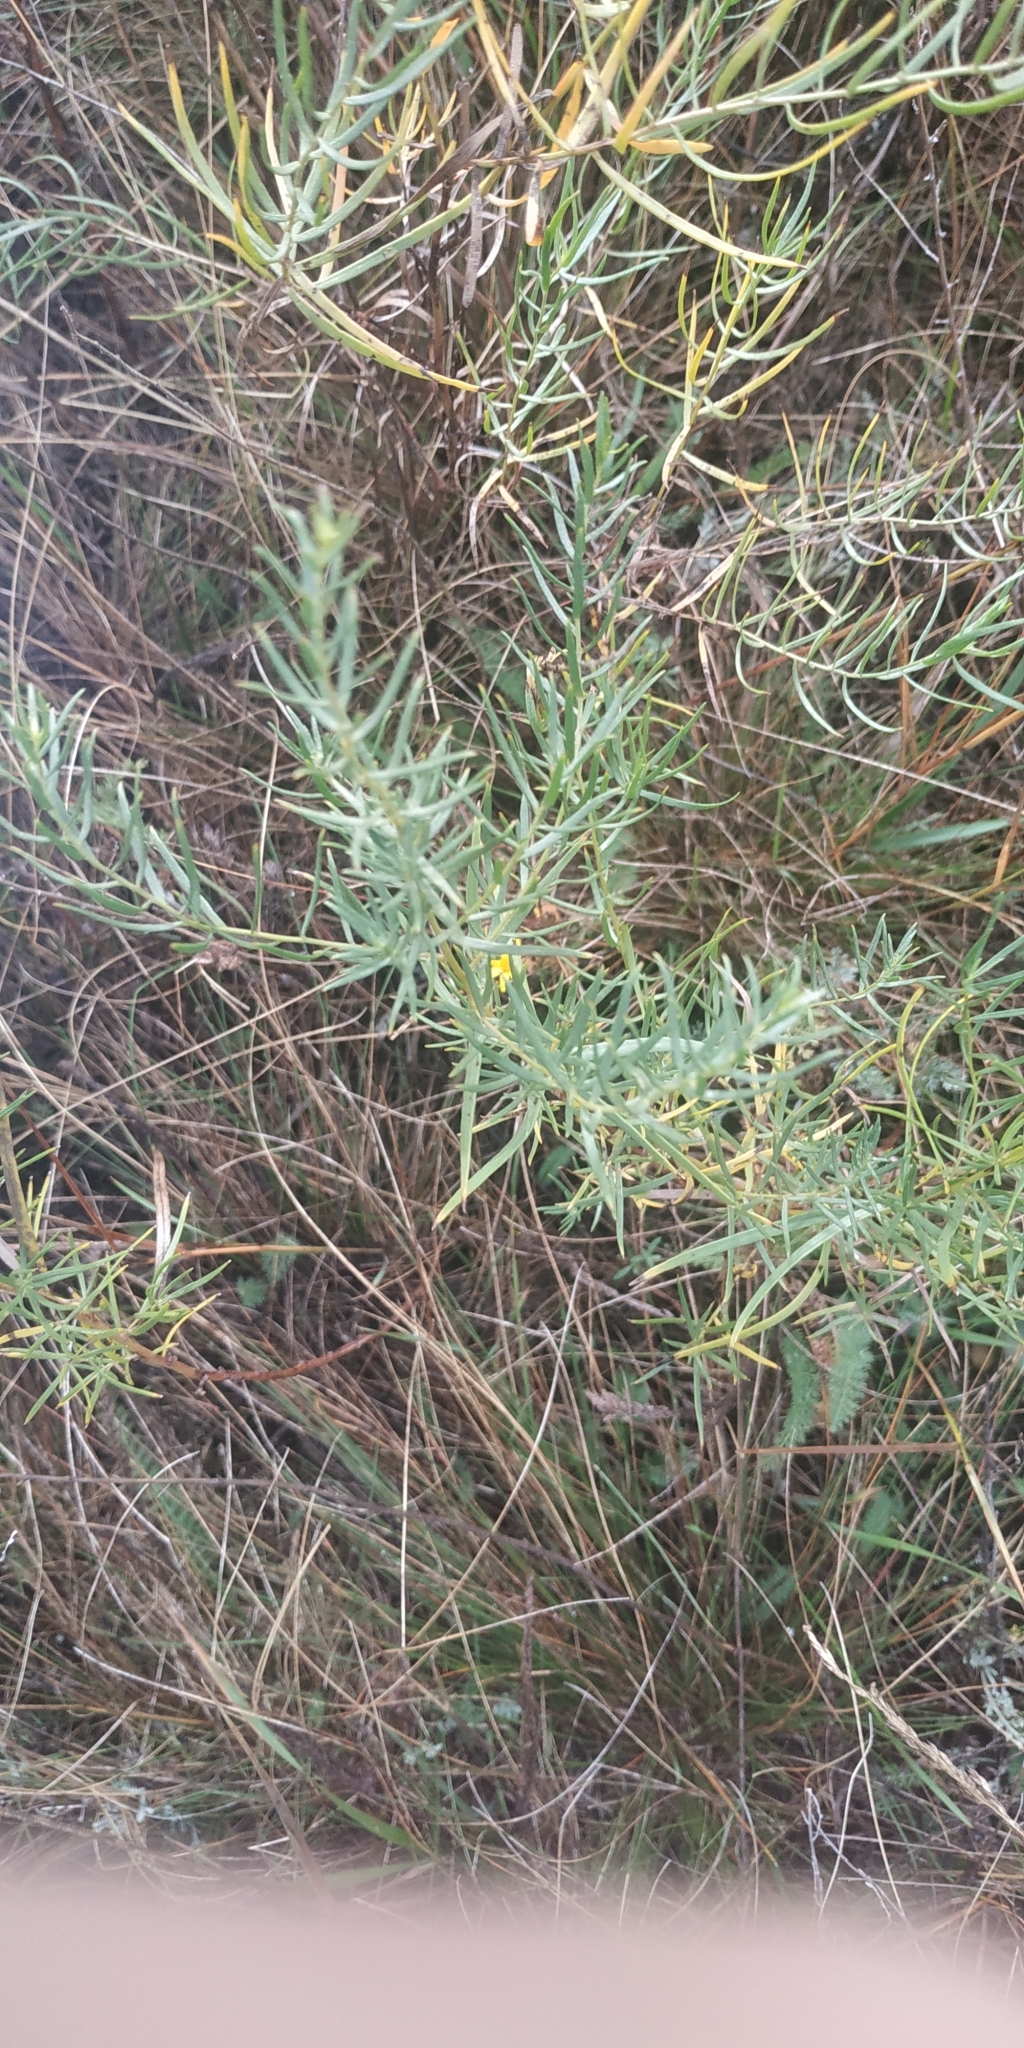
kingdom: Plantae
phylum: Tracheophyta
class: Magnoliopsida
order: Asterales
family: Asteraceae
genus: Artemisia
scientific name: Artemisia dracunculus
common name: Tarragon
